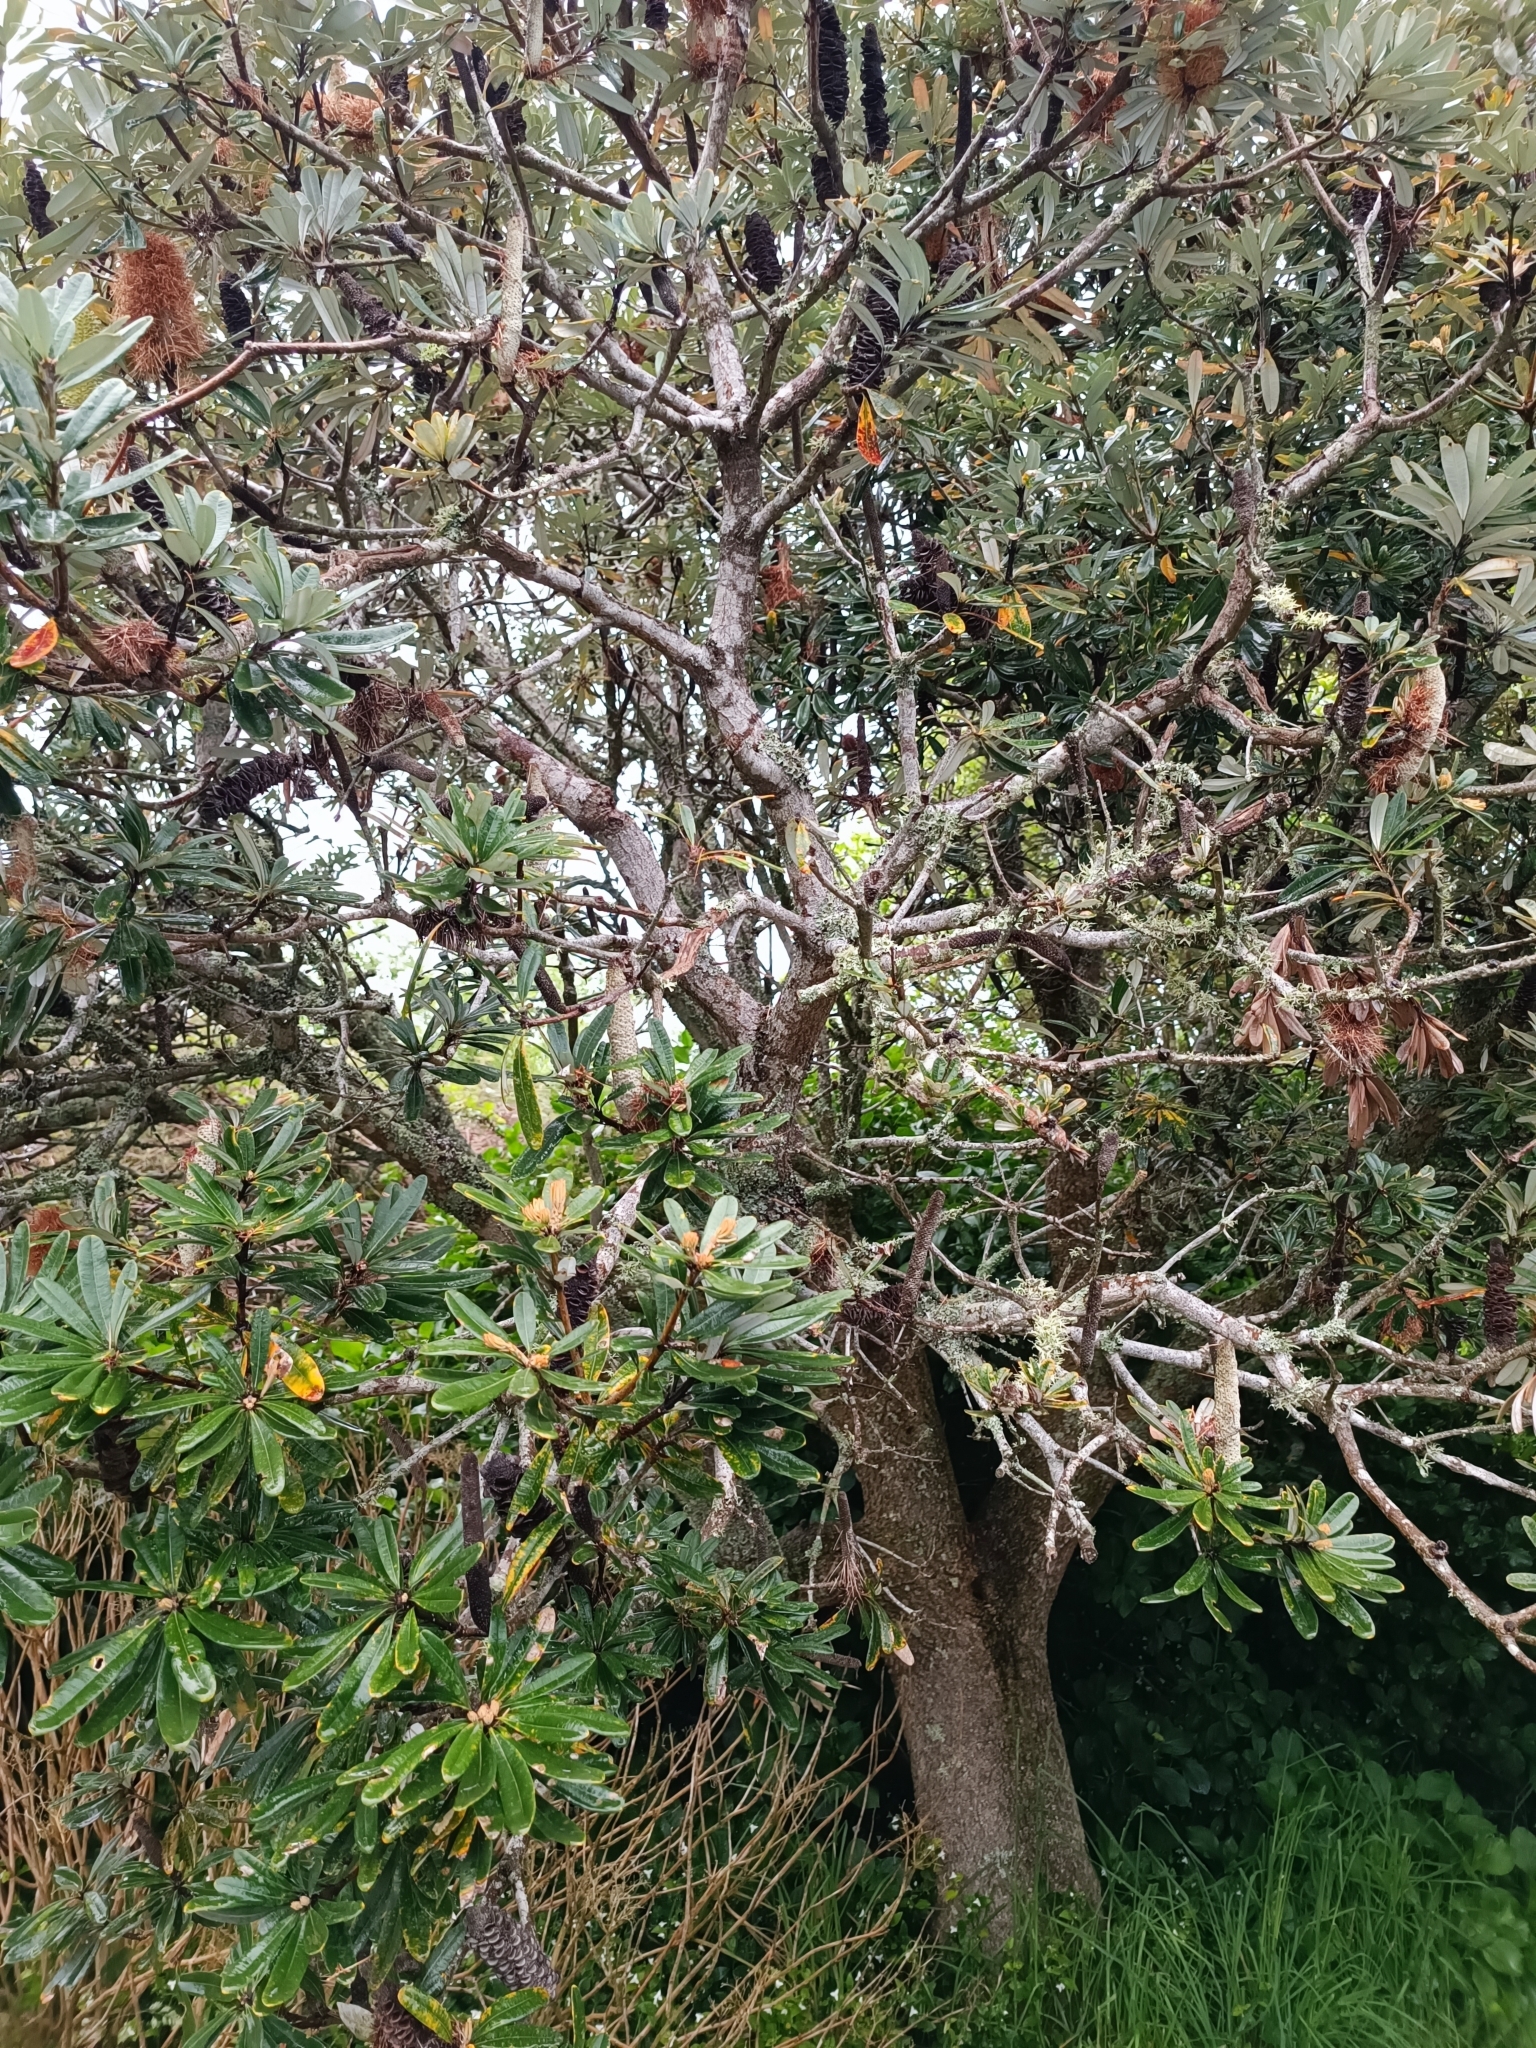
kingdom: Plantae
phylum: Tracheophyta
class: Magnoliopsida
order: Proteales
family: Proteaceae
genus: Banksia
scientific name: Banksia integrifolia
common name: White-honeysuckle
